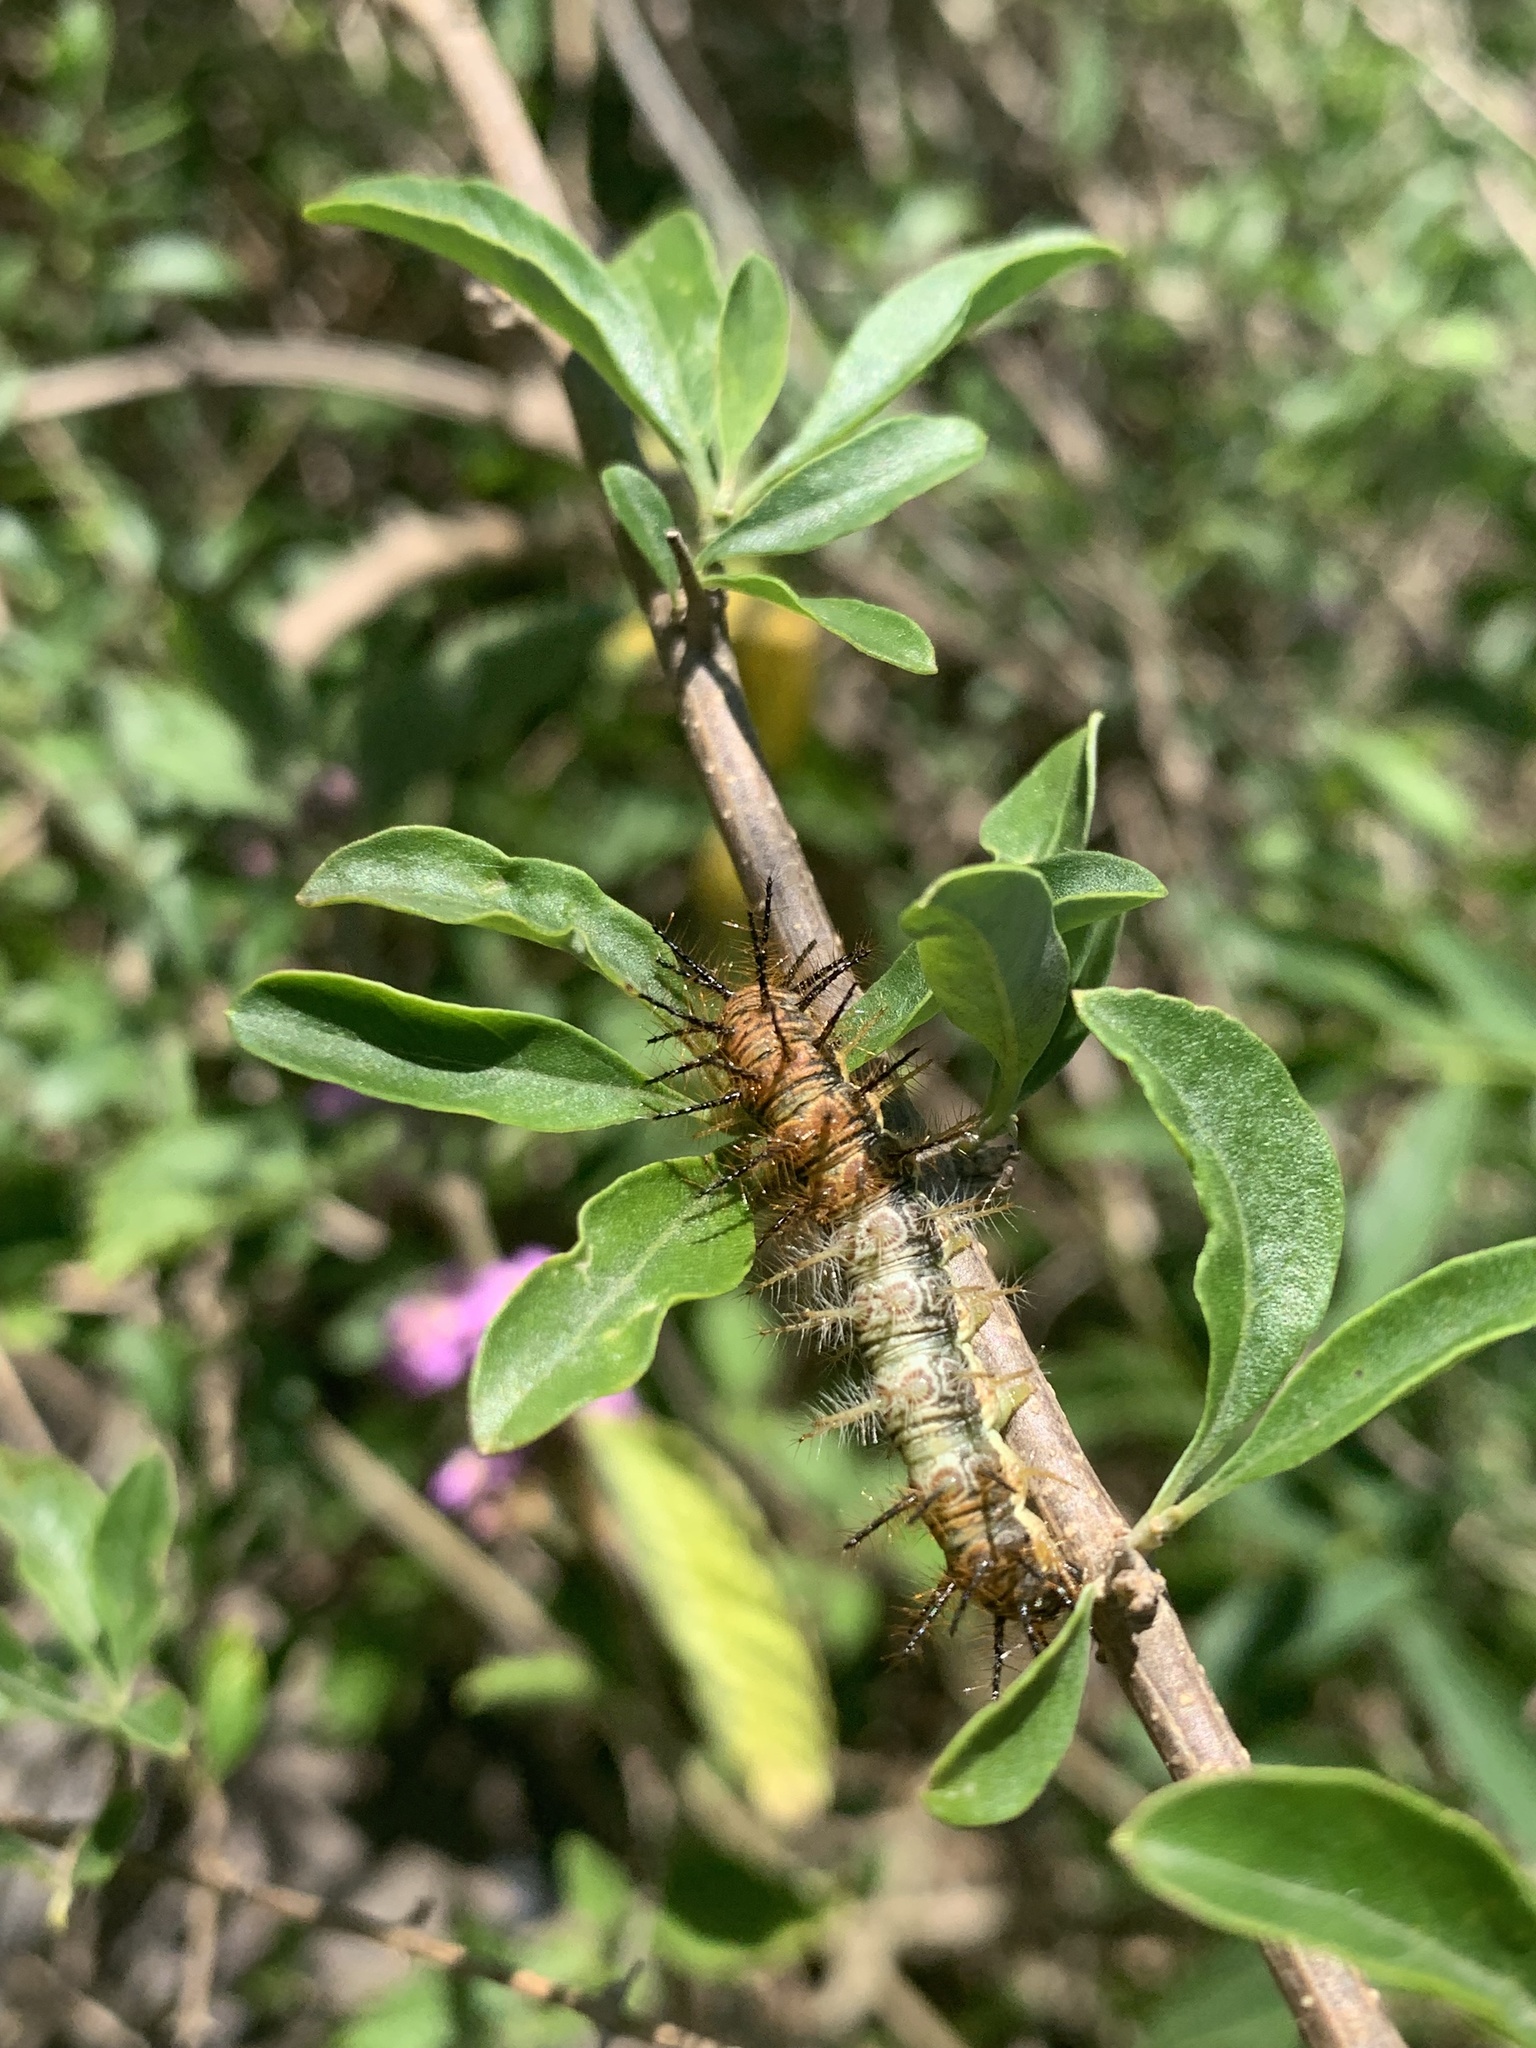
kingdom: Animalia
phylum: Arthropoda
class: Insecta
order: Lepidoptera
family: Nymphalidae
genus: Actinote
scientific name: Actinote pellenea
